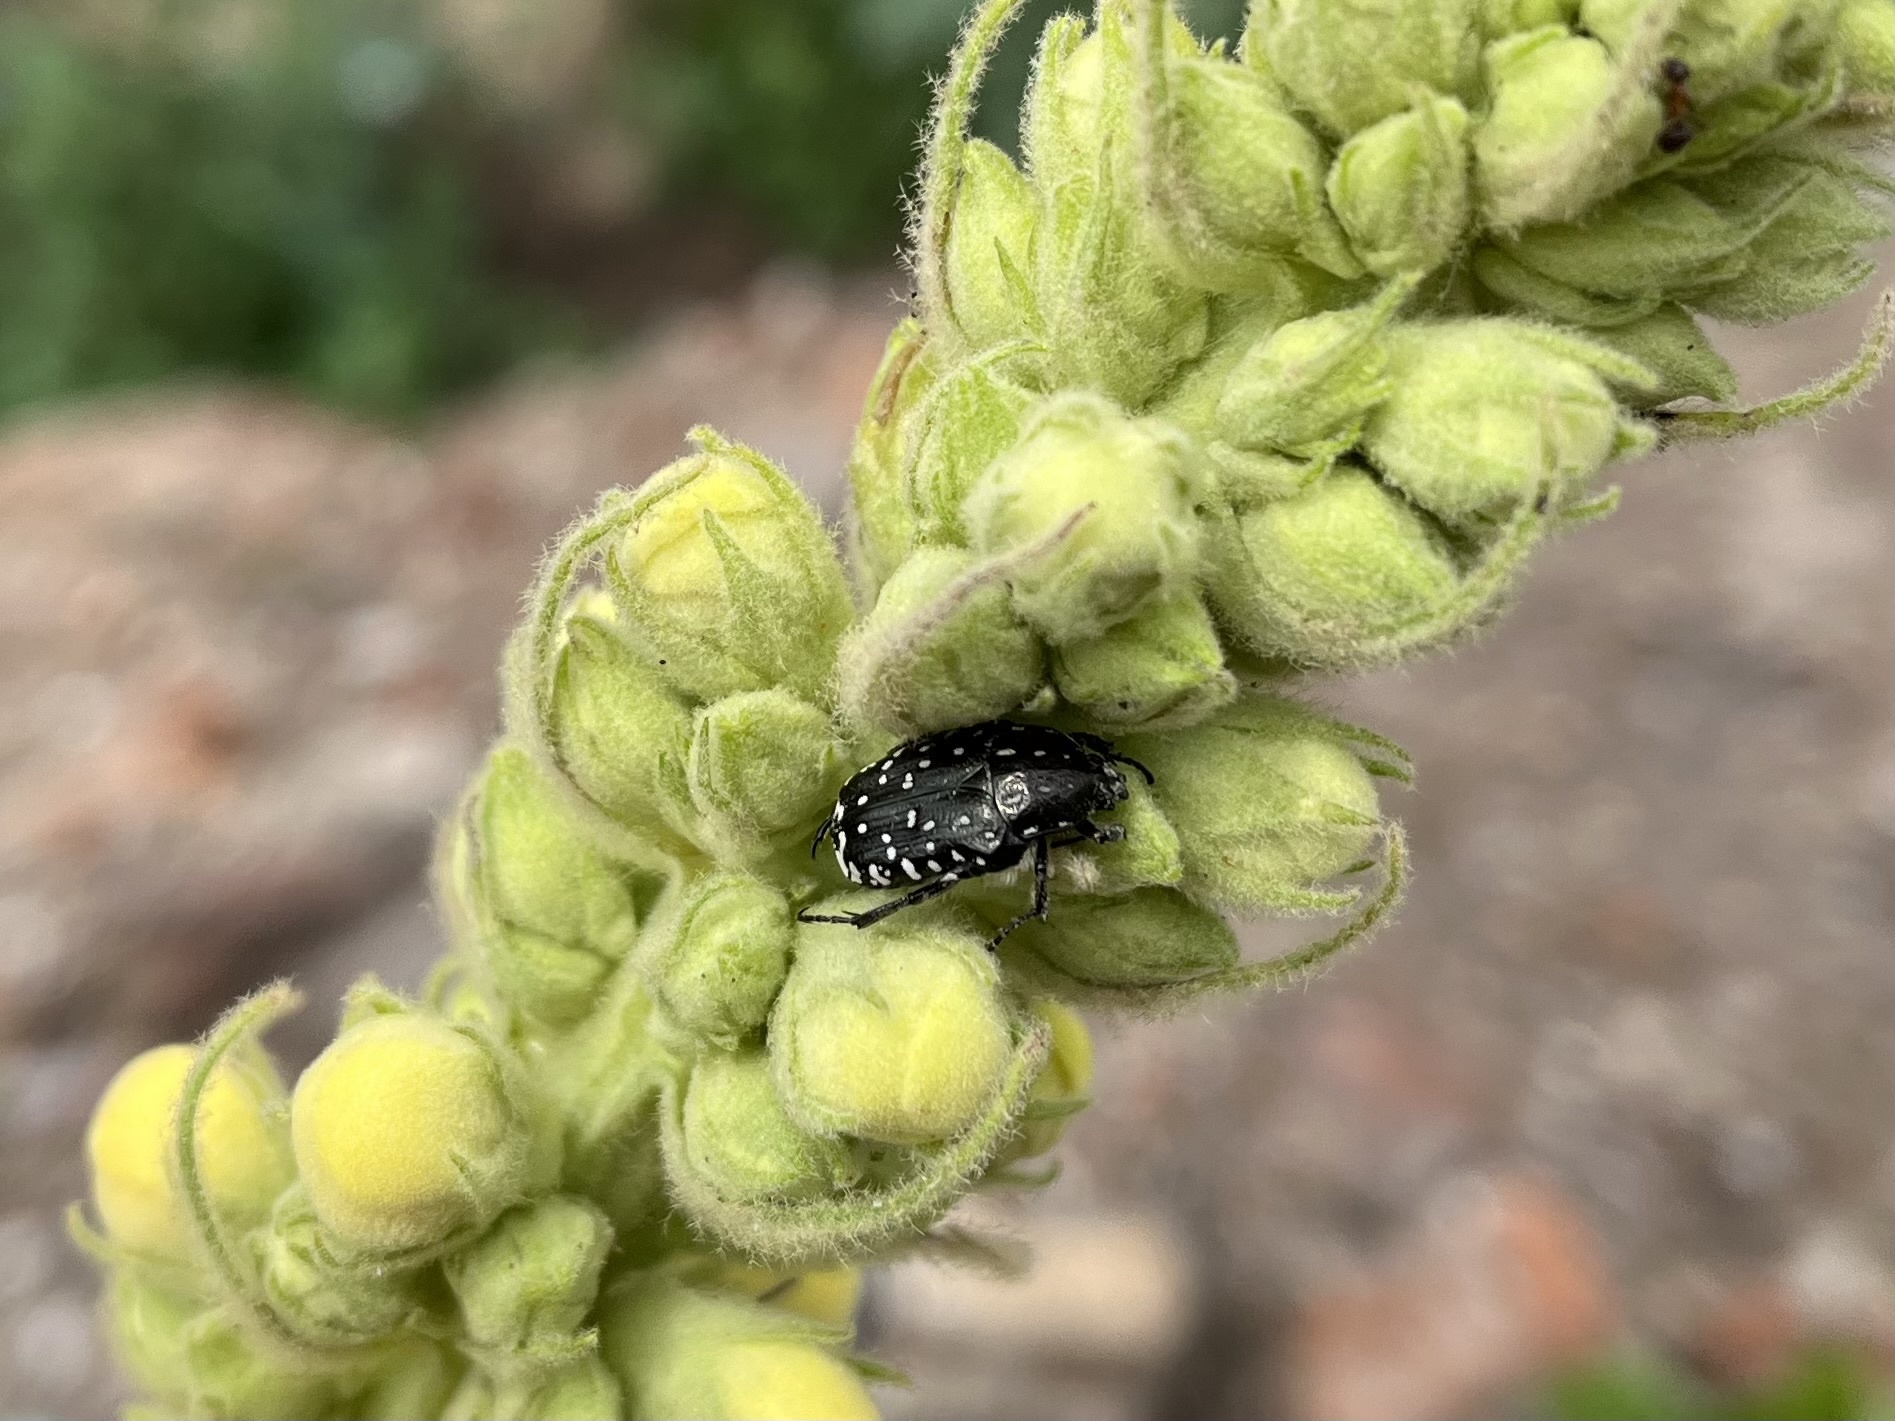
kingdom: Animalia
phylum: Arthropoda
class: Insecta
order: Coleoptera
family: Scarabaeidae
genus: Oxythyrea
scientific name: Oxythyrea funesta
